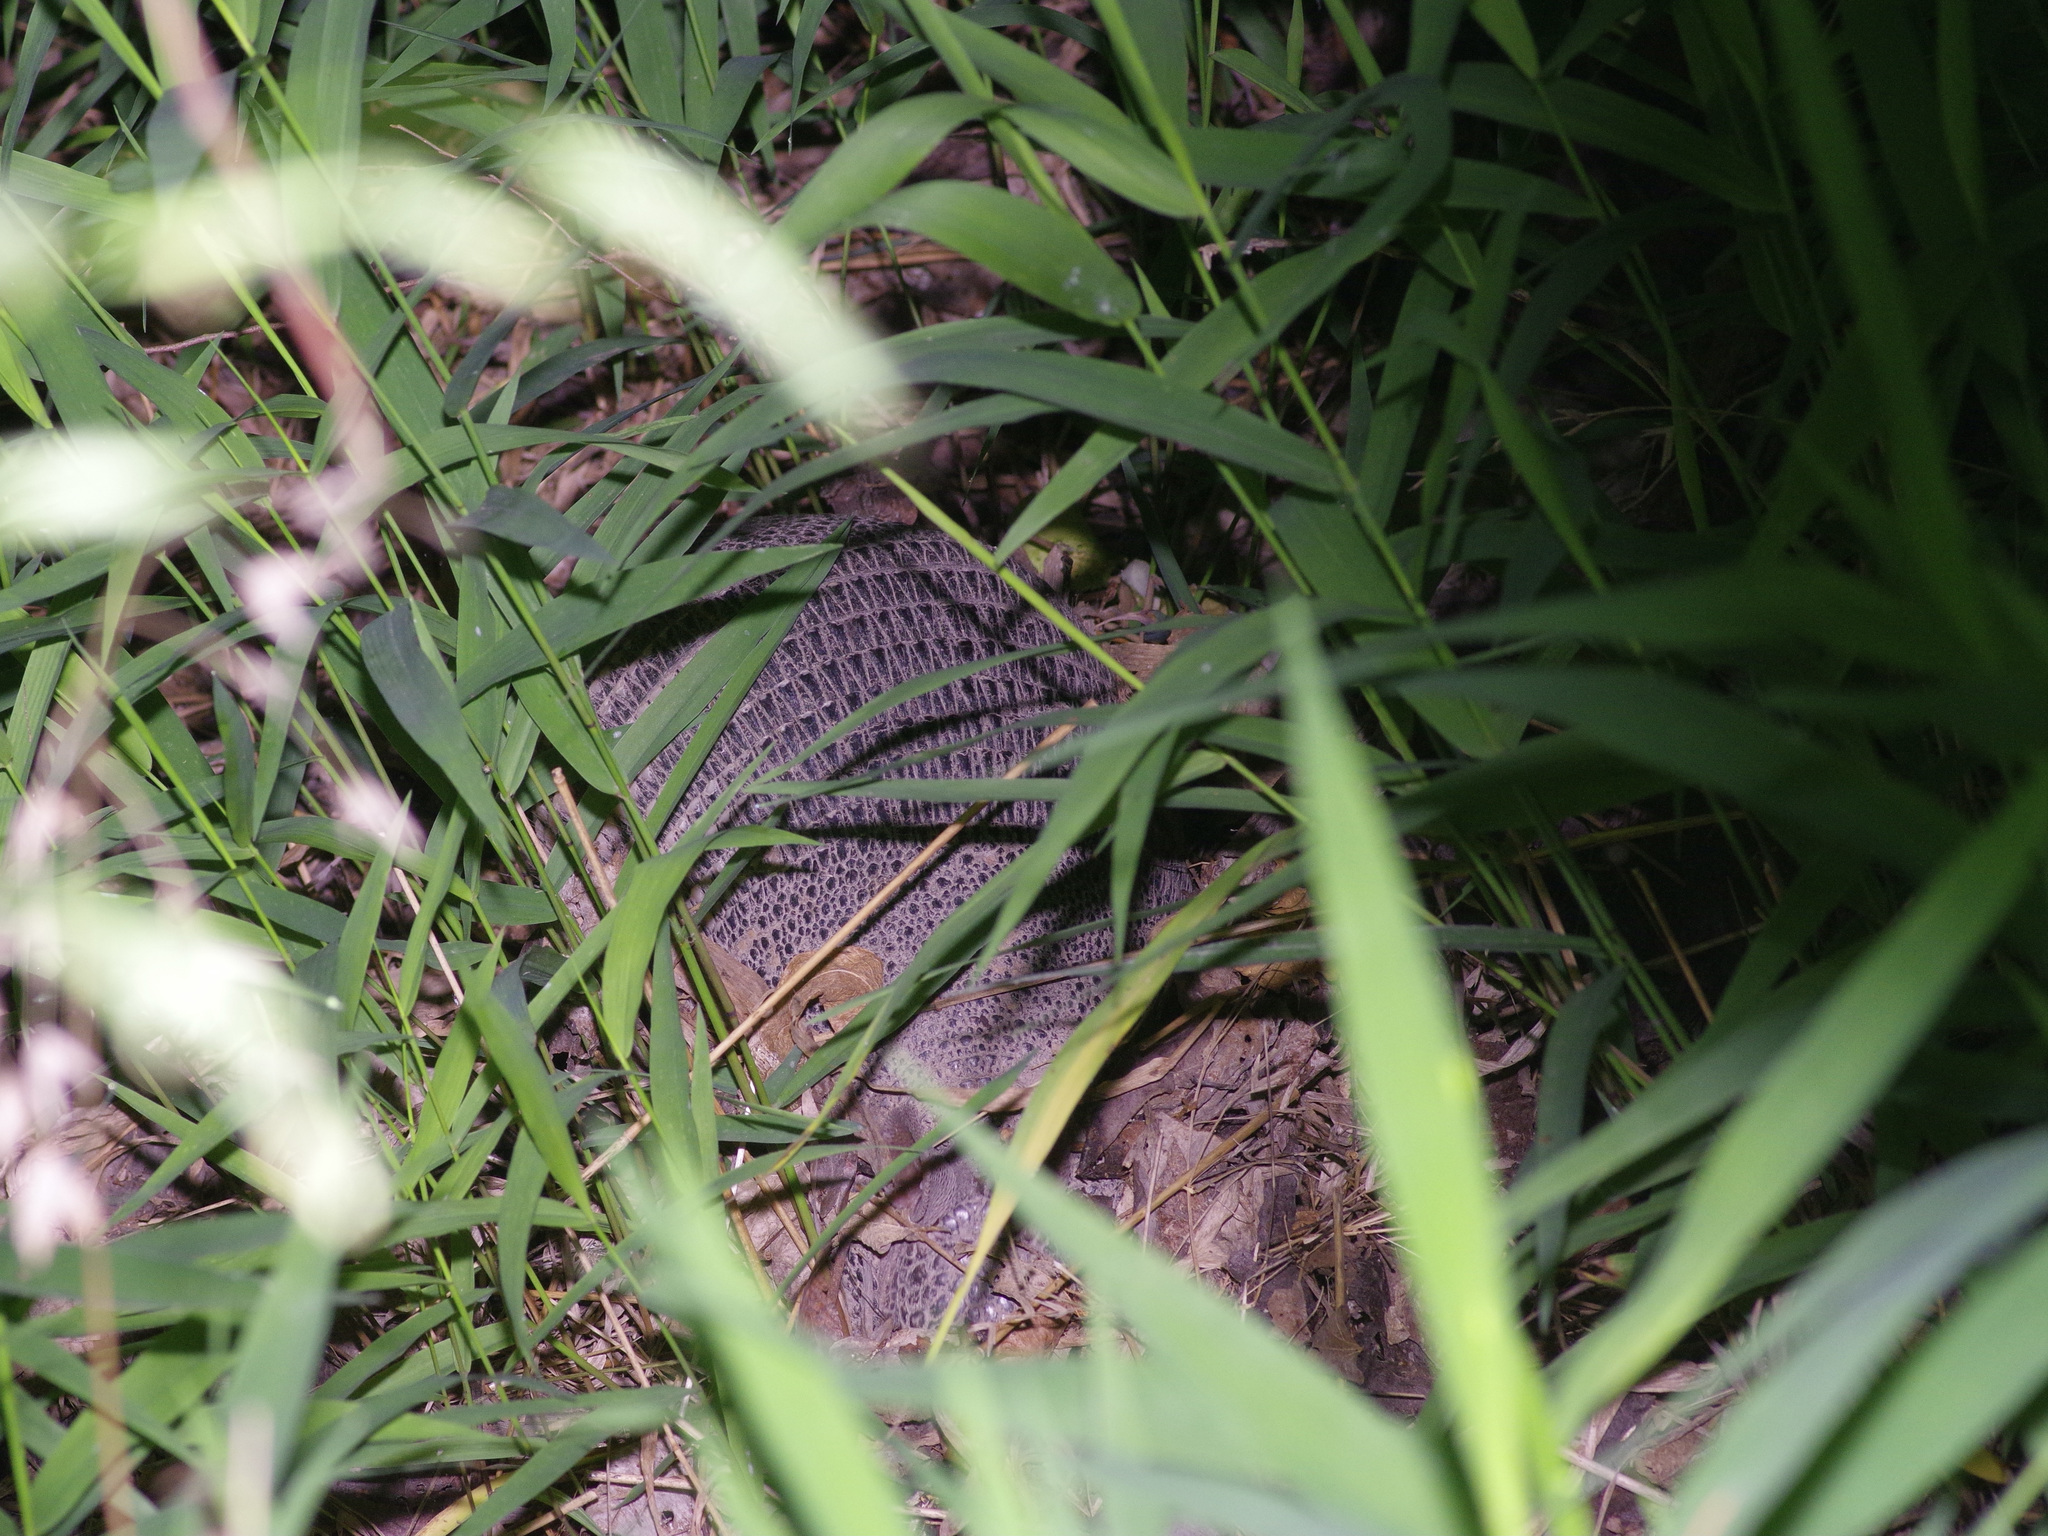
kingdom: Animalia
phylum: Chordata
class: Mammalia
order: Cingulata
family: Dasypodidae
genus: Dasypus
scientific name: Dasypus novemcinctus
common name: Nine-banded armadillo
